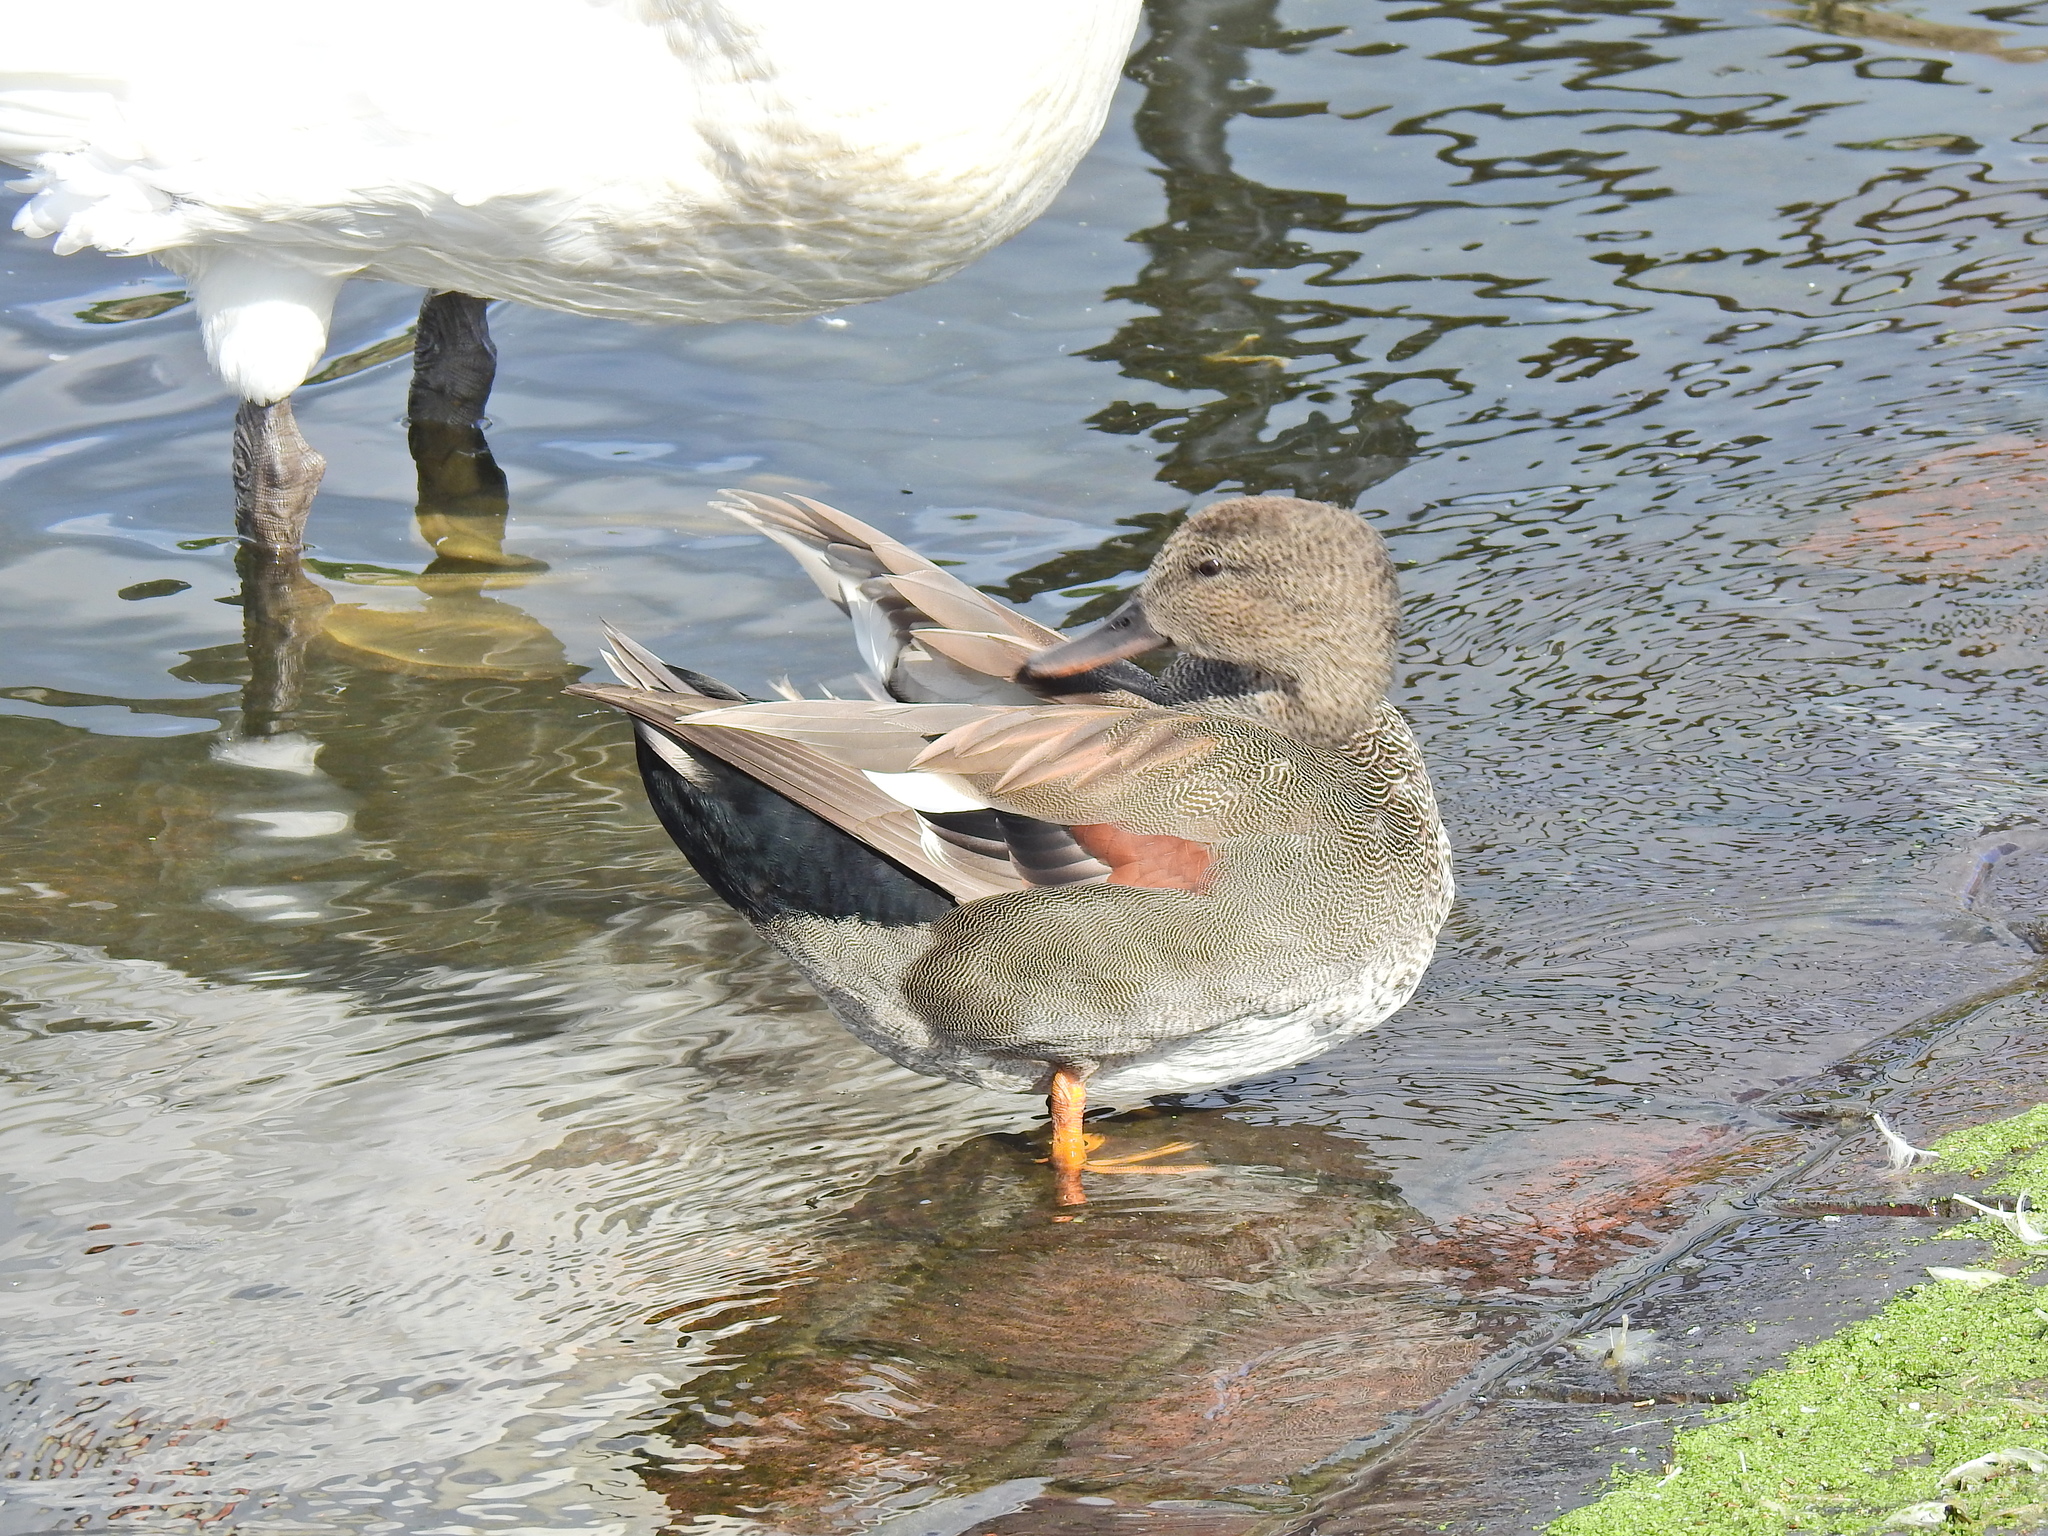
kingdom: Animalia
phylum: Chordata
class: Aves
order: Anseriformes
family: Anatidae
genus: Mareca
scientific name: Mareca strepera
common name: Gadwall
